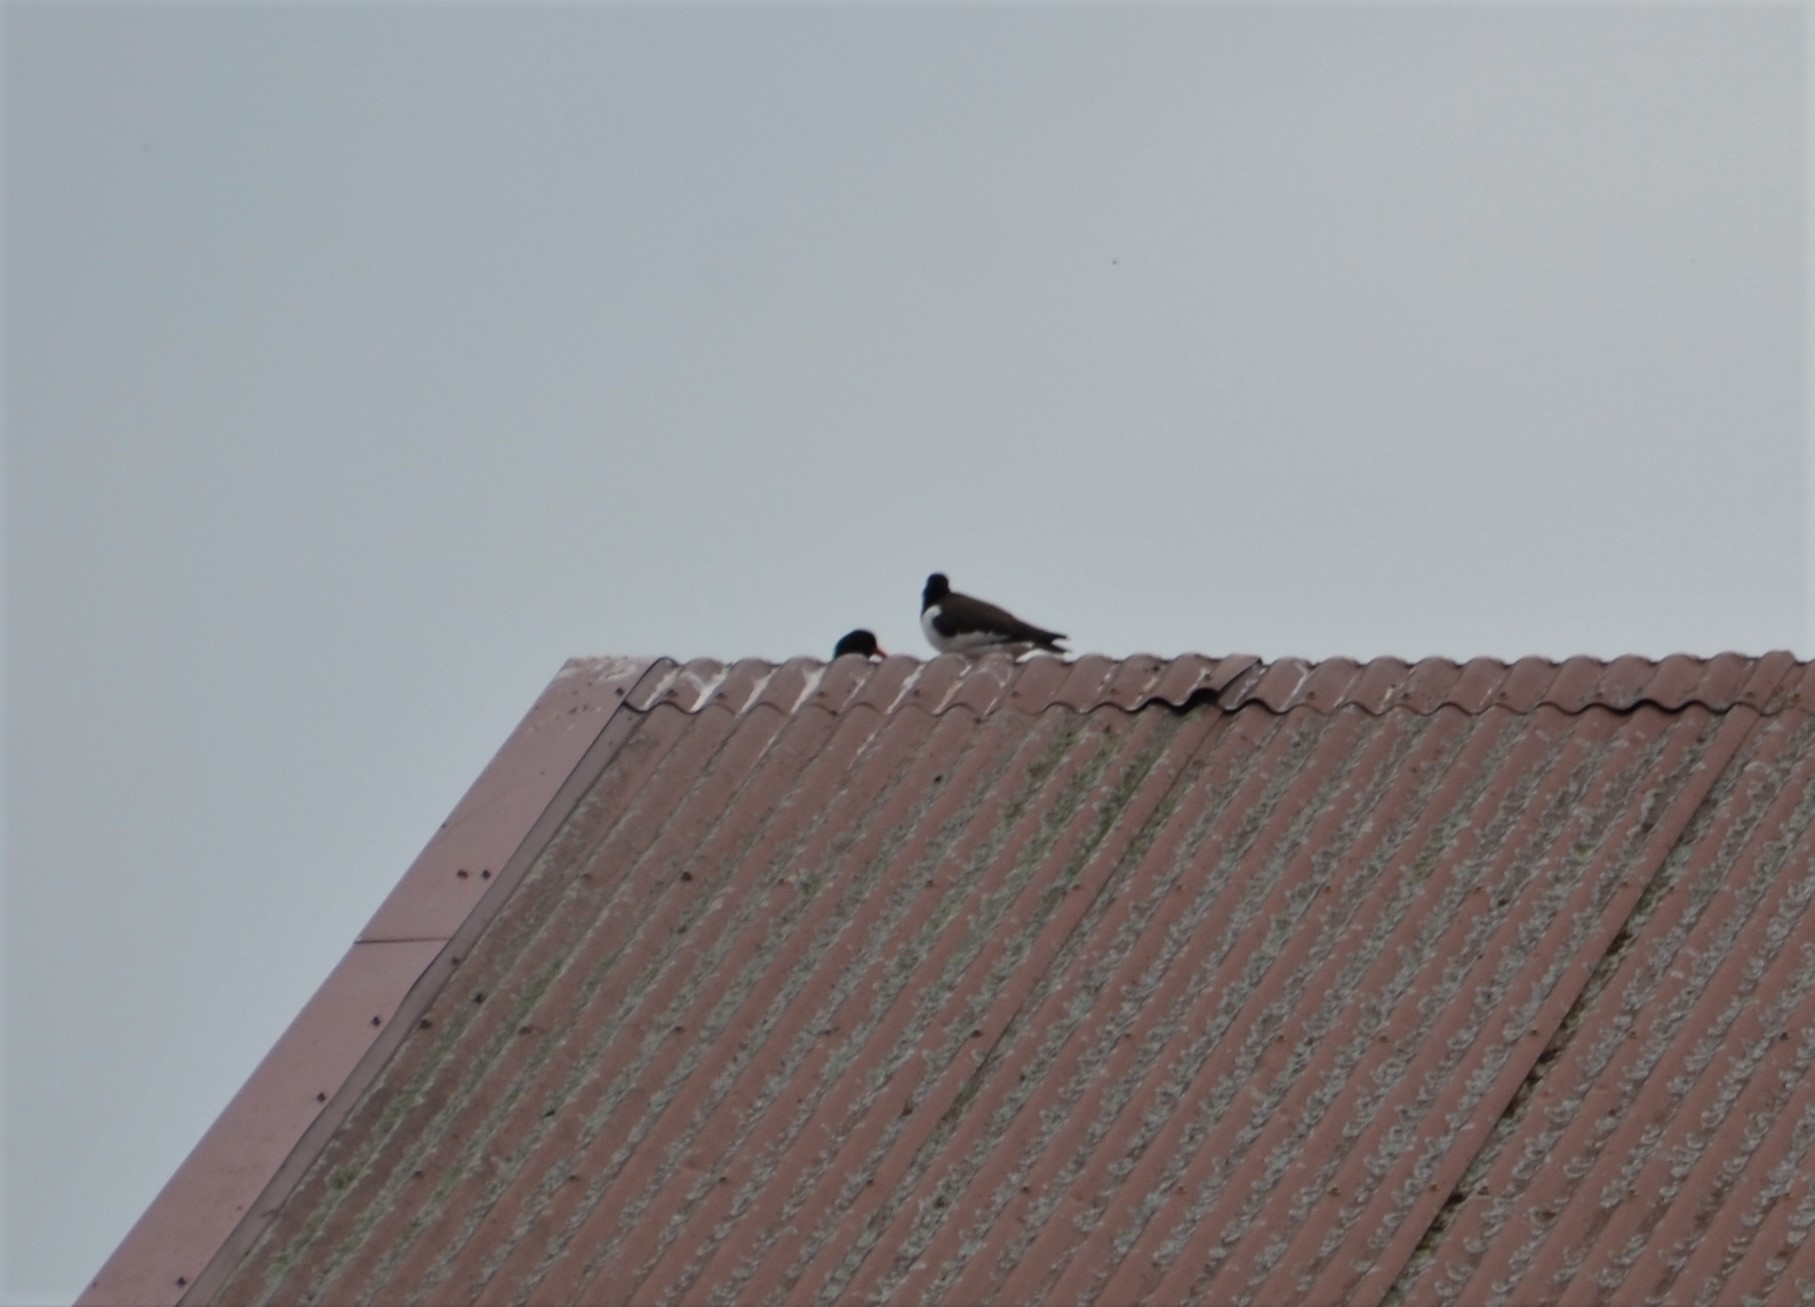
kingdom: Animalia
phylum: Chordata
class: Aves
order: Charadriiformes
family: Haematopodidae
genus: Haematopus
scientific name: Haematopus ostralegus
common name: Eurasian oystercatcher
